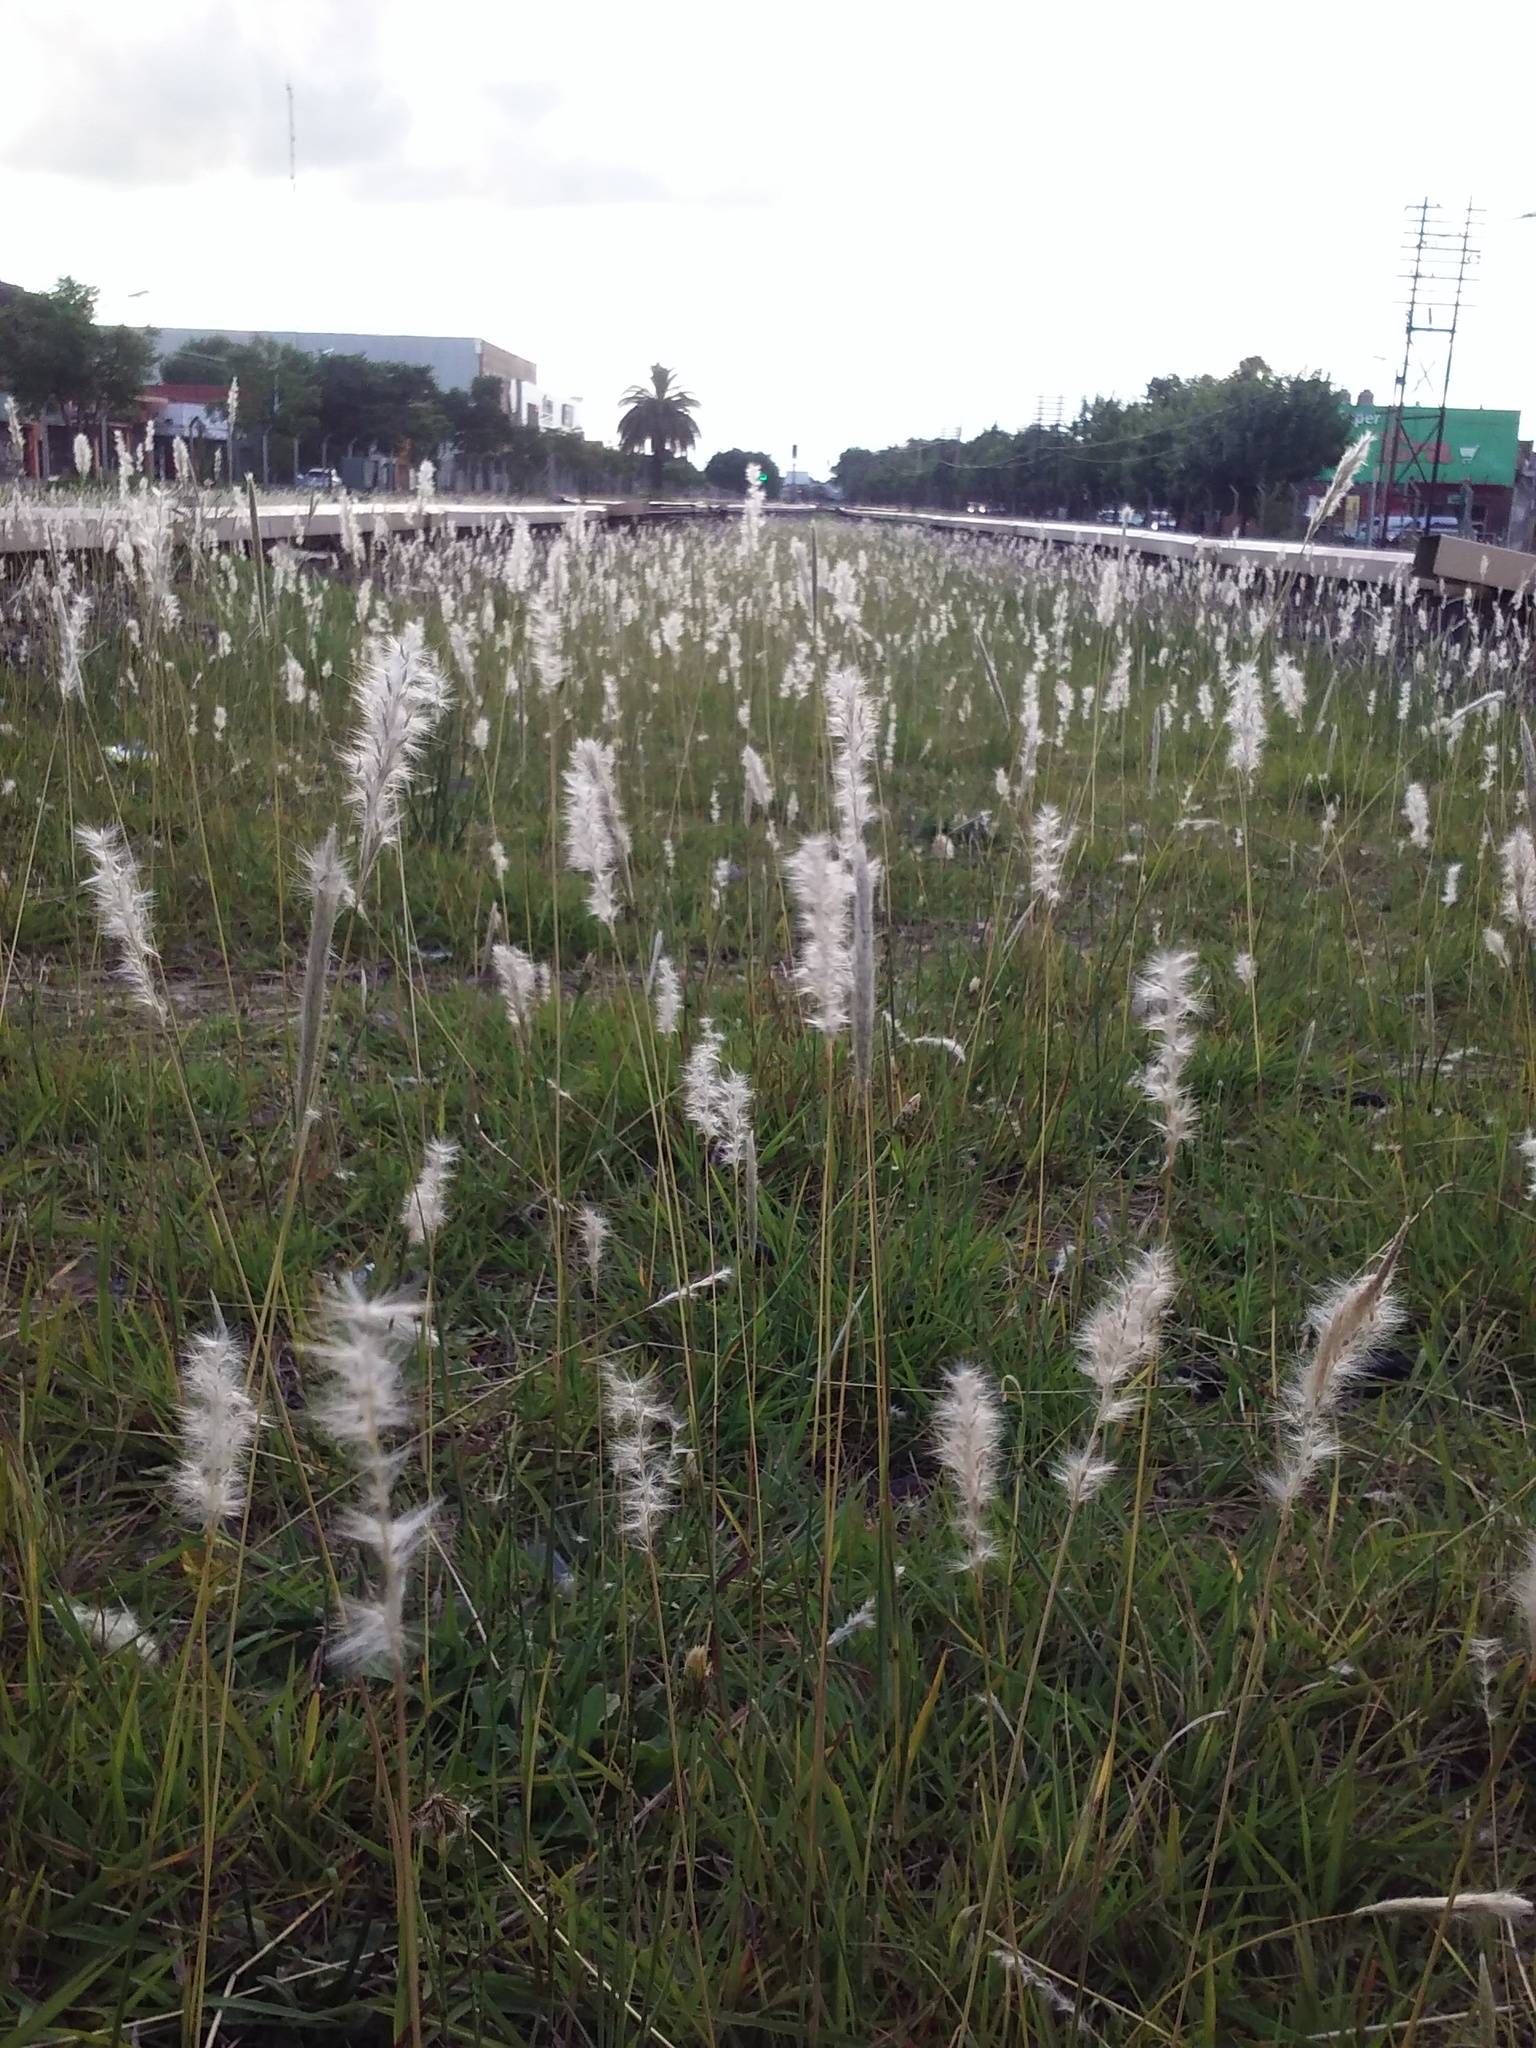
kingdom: Plantae
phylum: Tracheophyta
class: Liliopsida
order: Poales
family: Poaceae
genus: Bothriochloa
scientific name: Bothriochloa laguroides
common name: Silver bluestem
